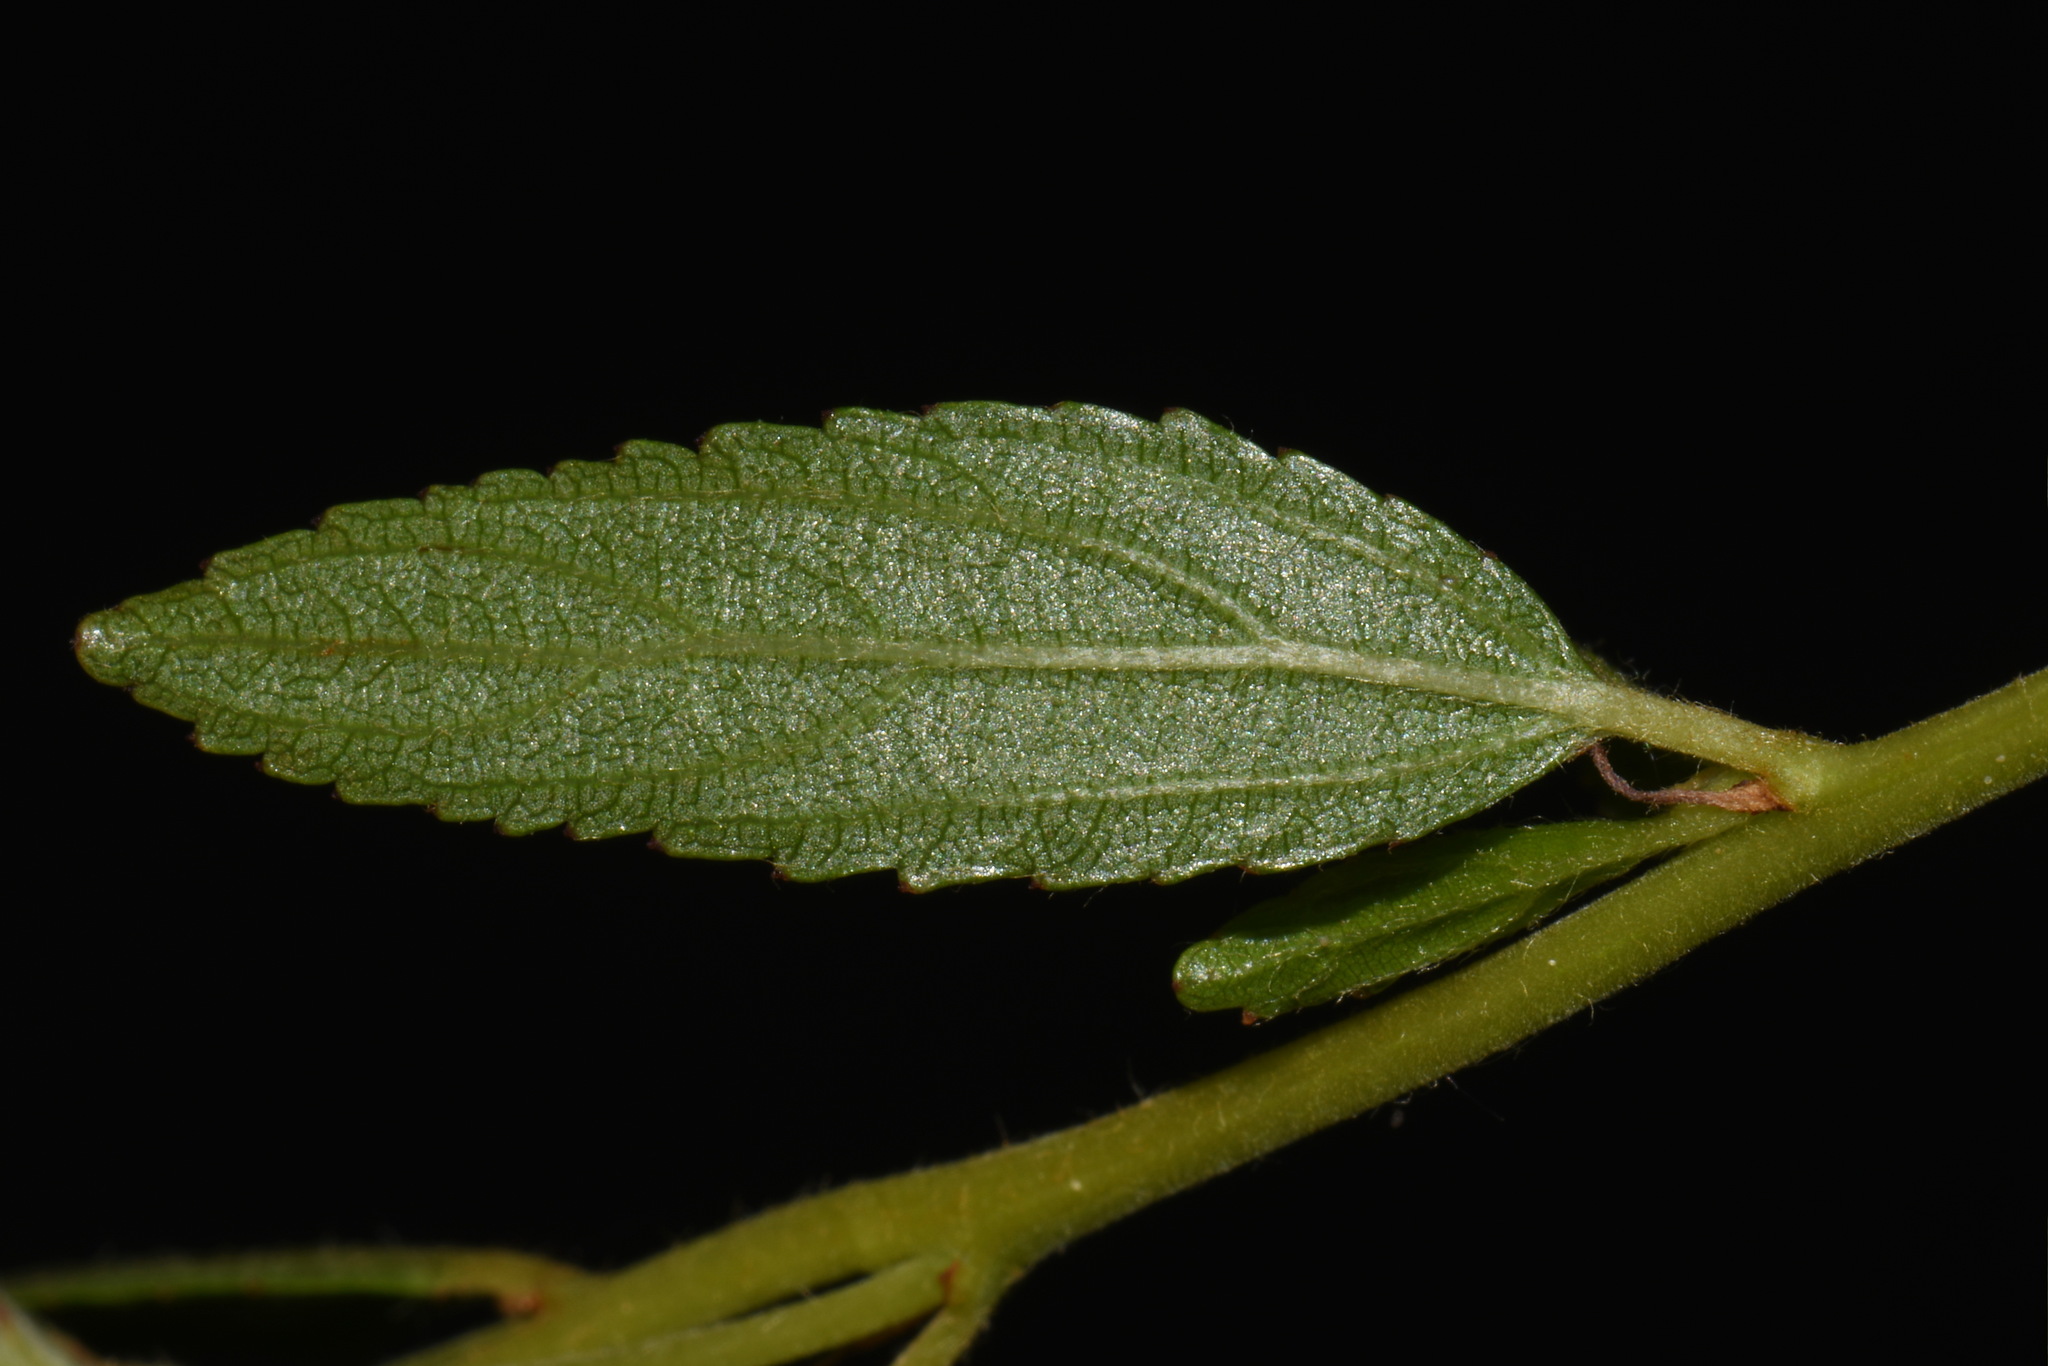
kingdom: Plantae
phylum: Tracheophyta
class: Magnoliopsida
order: Rosales
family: Rhamnaceae
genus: Ceanothus
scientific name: Ceanothus herbaceus
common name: Inland ceanothus
